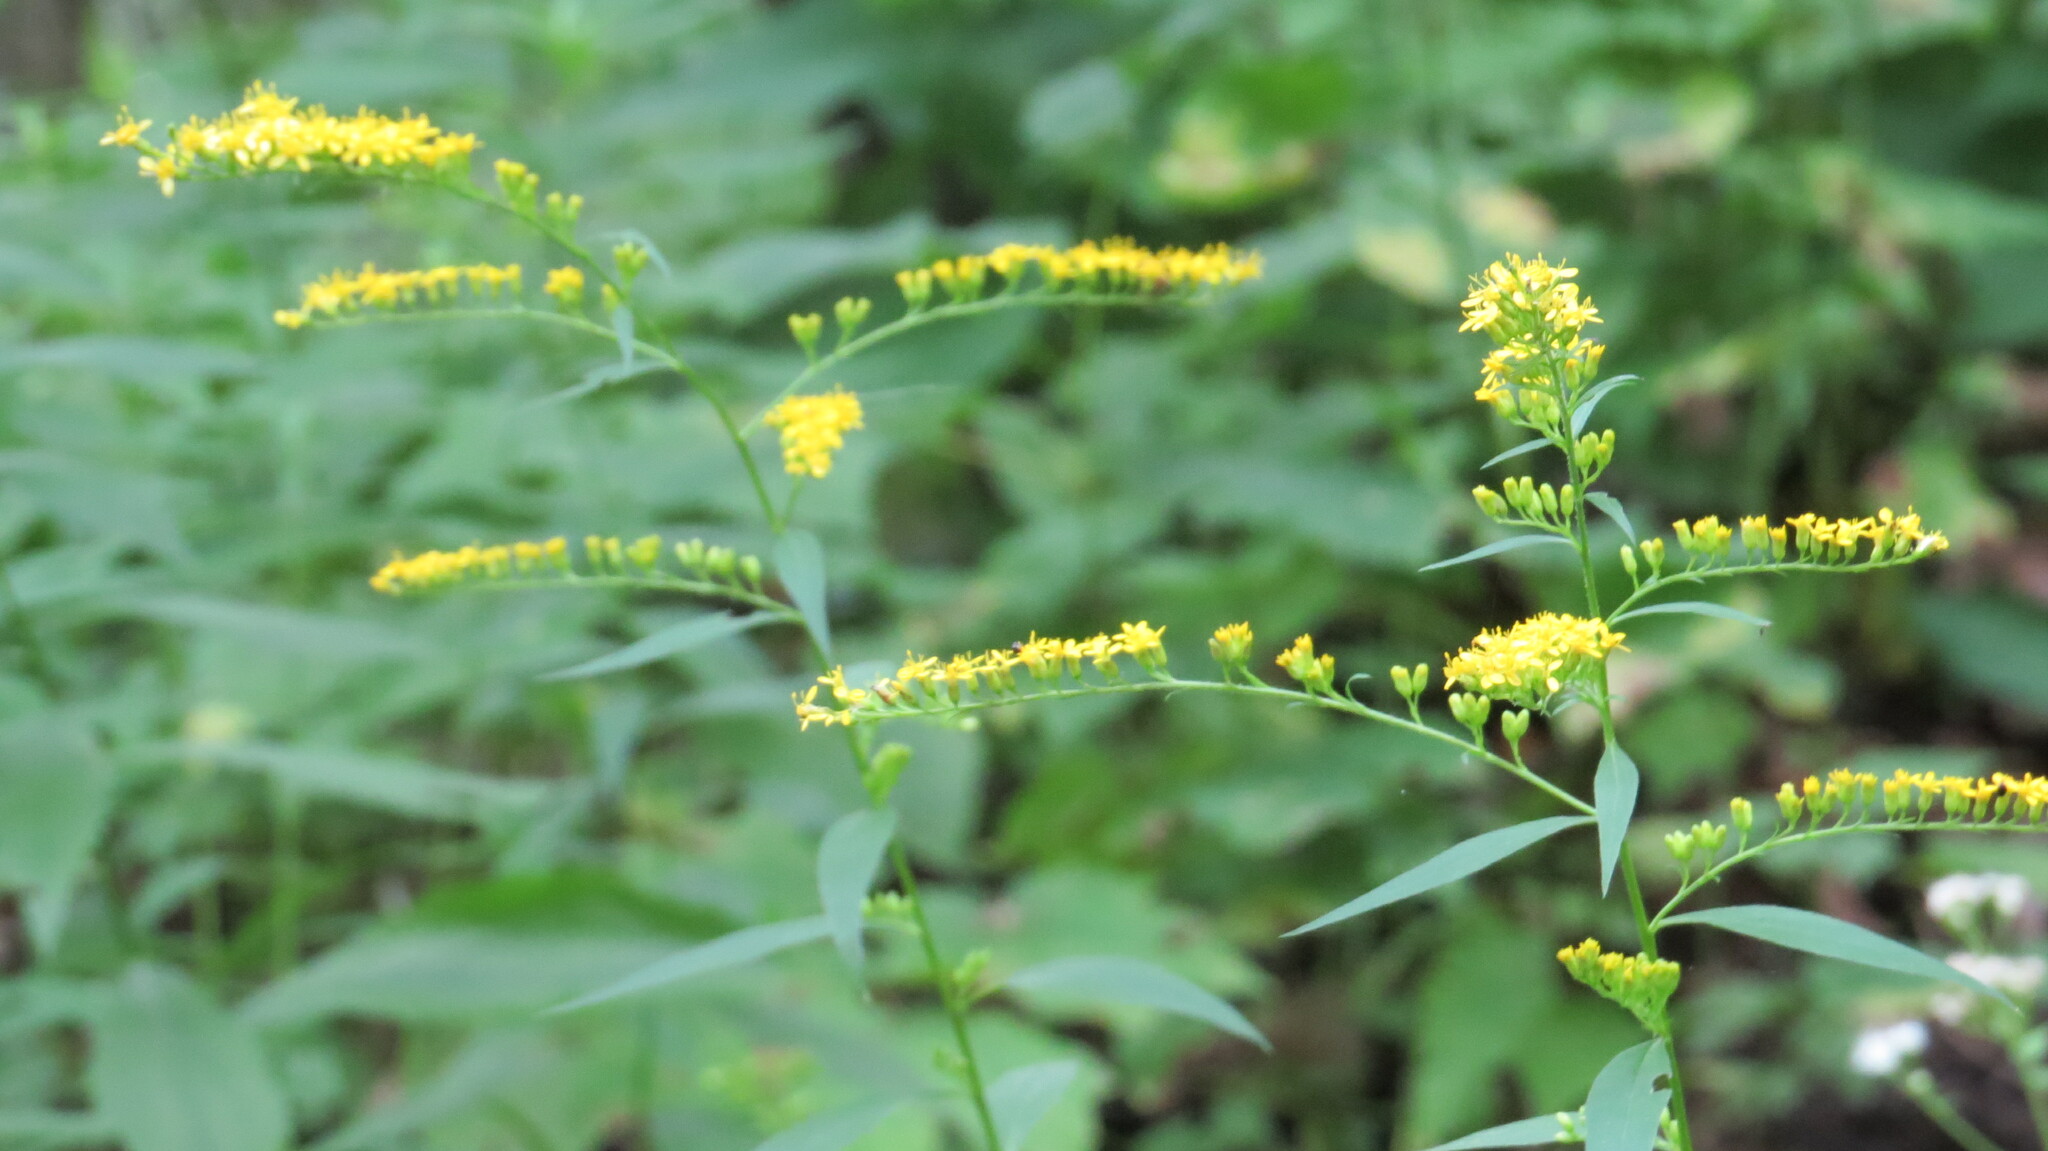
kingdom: Plantae
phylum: Tracheophyta
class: Magnoliopsida
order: Asterales
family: Asteraceae
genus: Solidago
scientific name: Solidago ulmifolia
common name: Elm-leaf goldenrod
